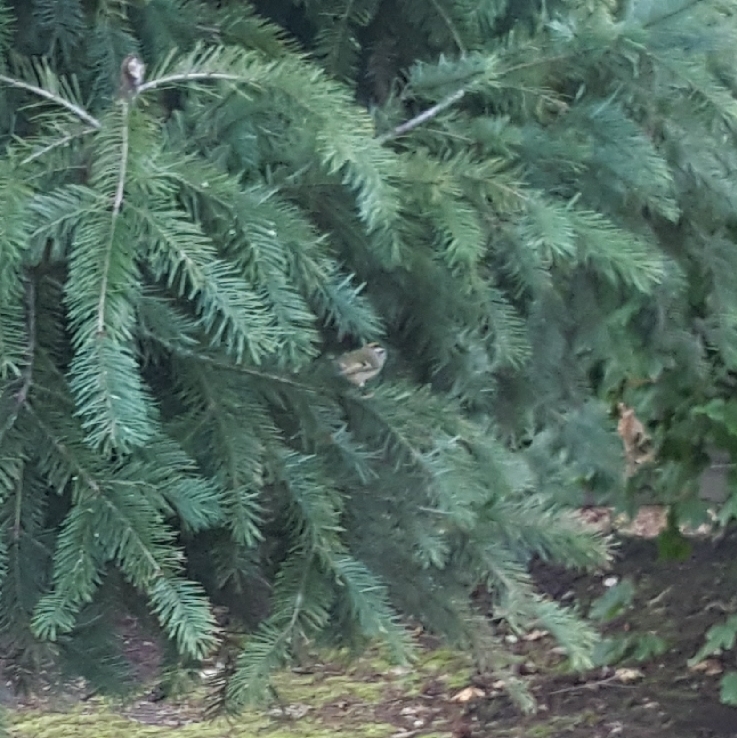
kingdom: Animalia
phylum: Chordata
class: Aves
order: Passeriformes
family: Regulidae
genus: Regulus
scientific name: Regulus satrapa
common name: Golden-crowned kinglet
